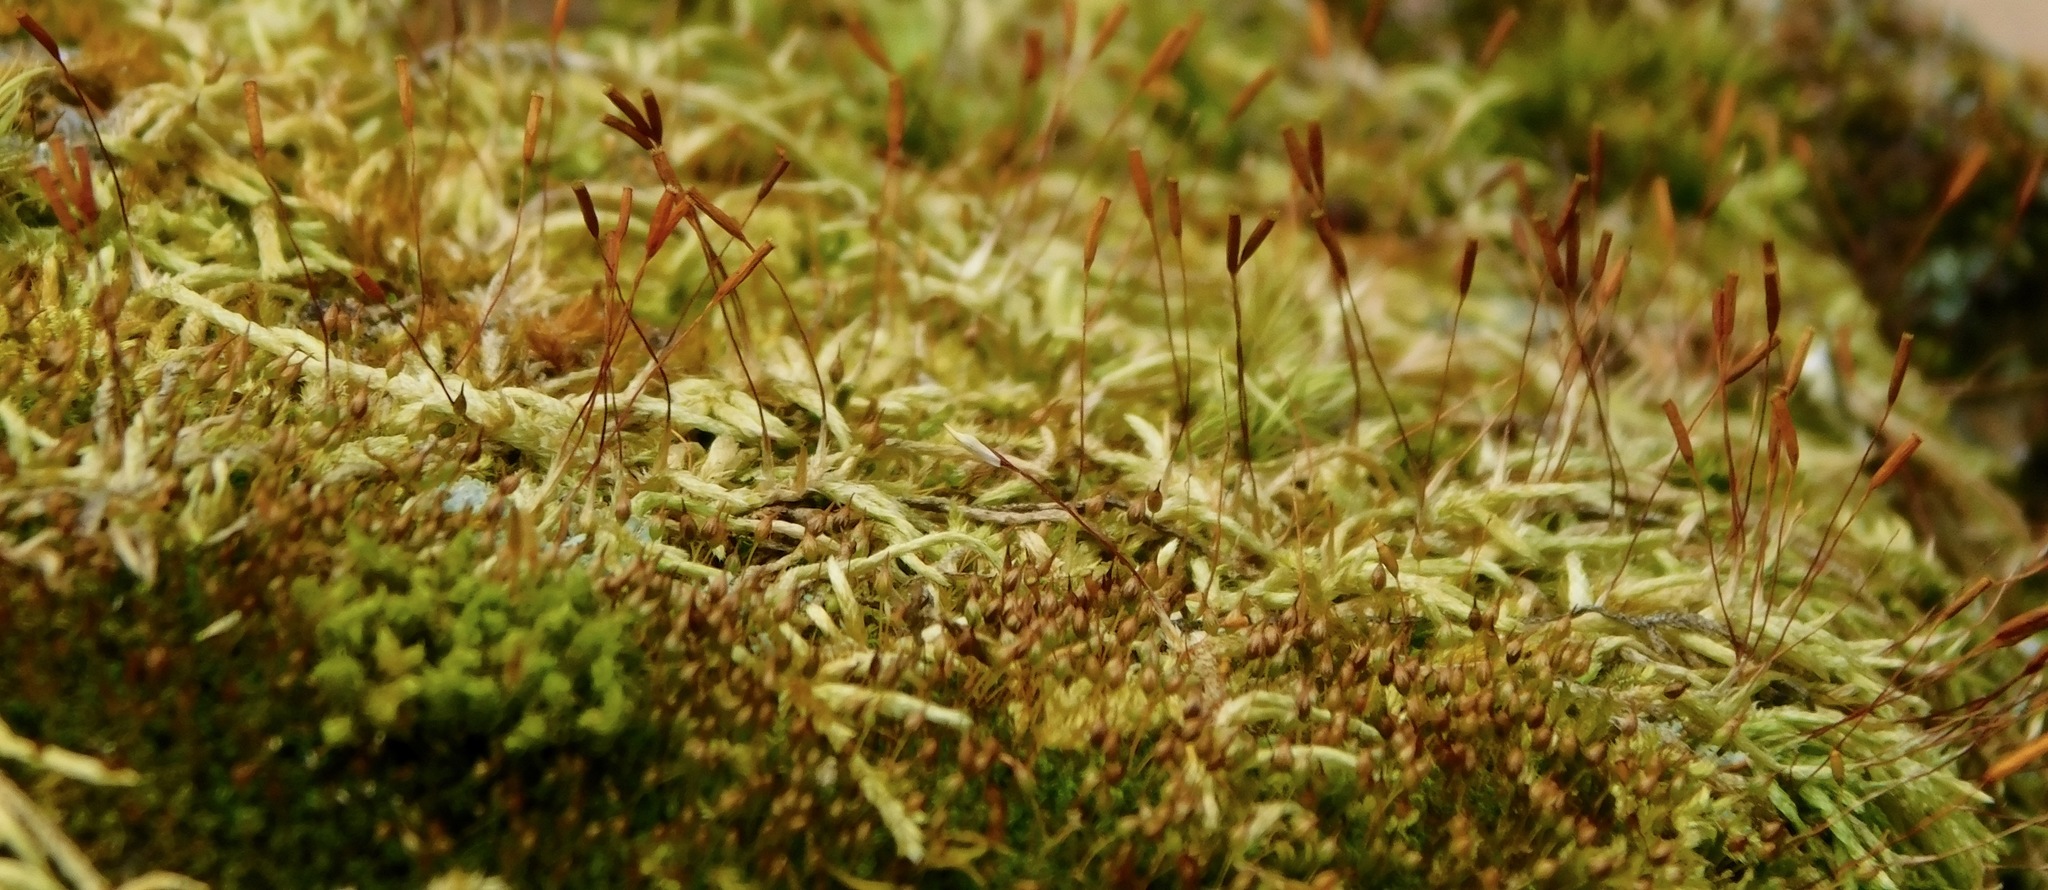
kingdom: Plantae
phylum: Bryophyta
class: Bryopsida
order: Hypnales
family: Jocheniaceae
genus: Jochenia
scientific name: Jochenia pallescens
